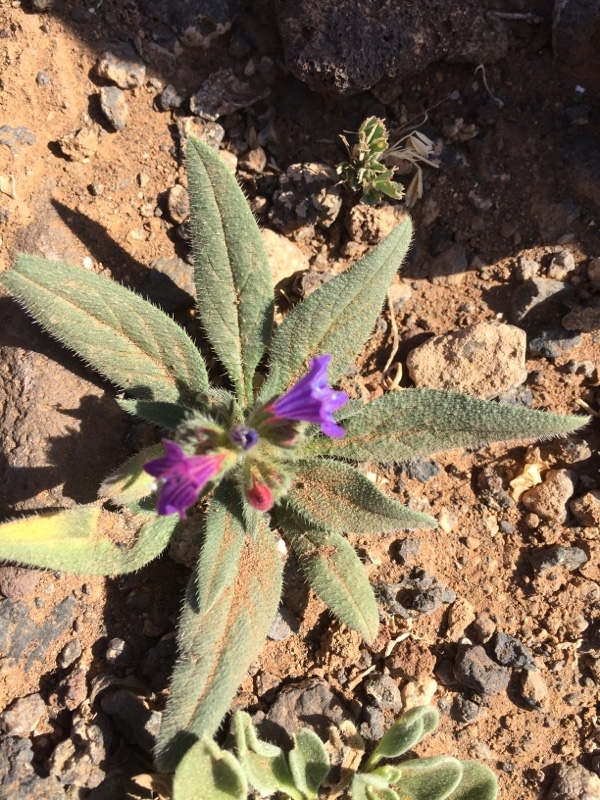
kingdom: Plantae
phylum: Tracheophyta
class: Magnoliopsida
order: Boraginales
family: Boraginaceae
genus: Echium
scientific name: Echium bonnetii
